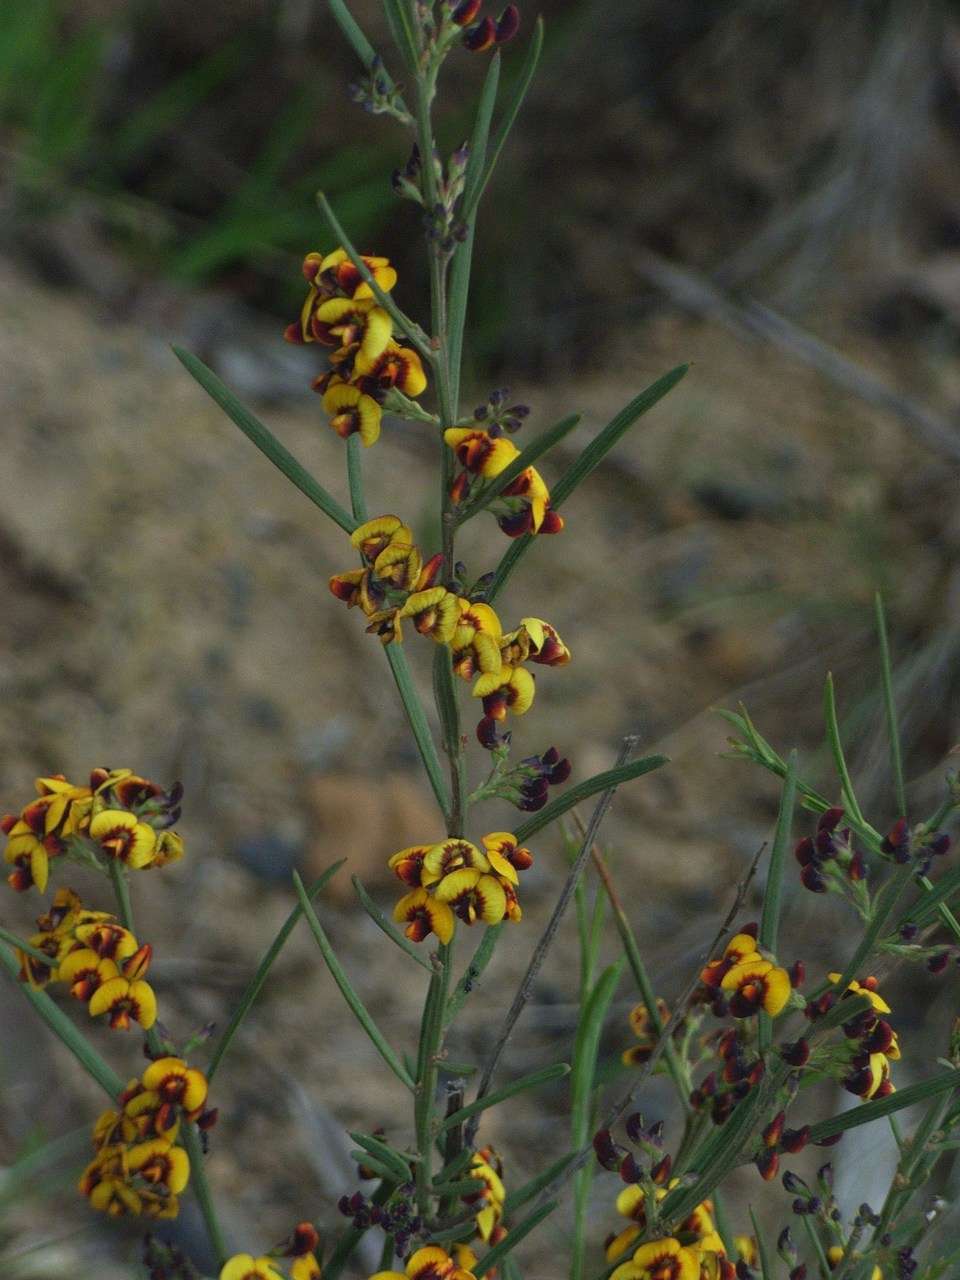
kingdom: Plantae
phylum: Tracheophyta
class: Magnoliopsida
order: Fabales
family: Fabaceae
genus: Daviesia
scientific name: Daviesia leptophylla
